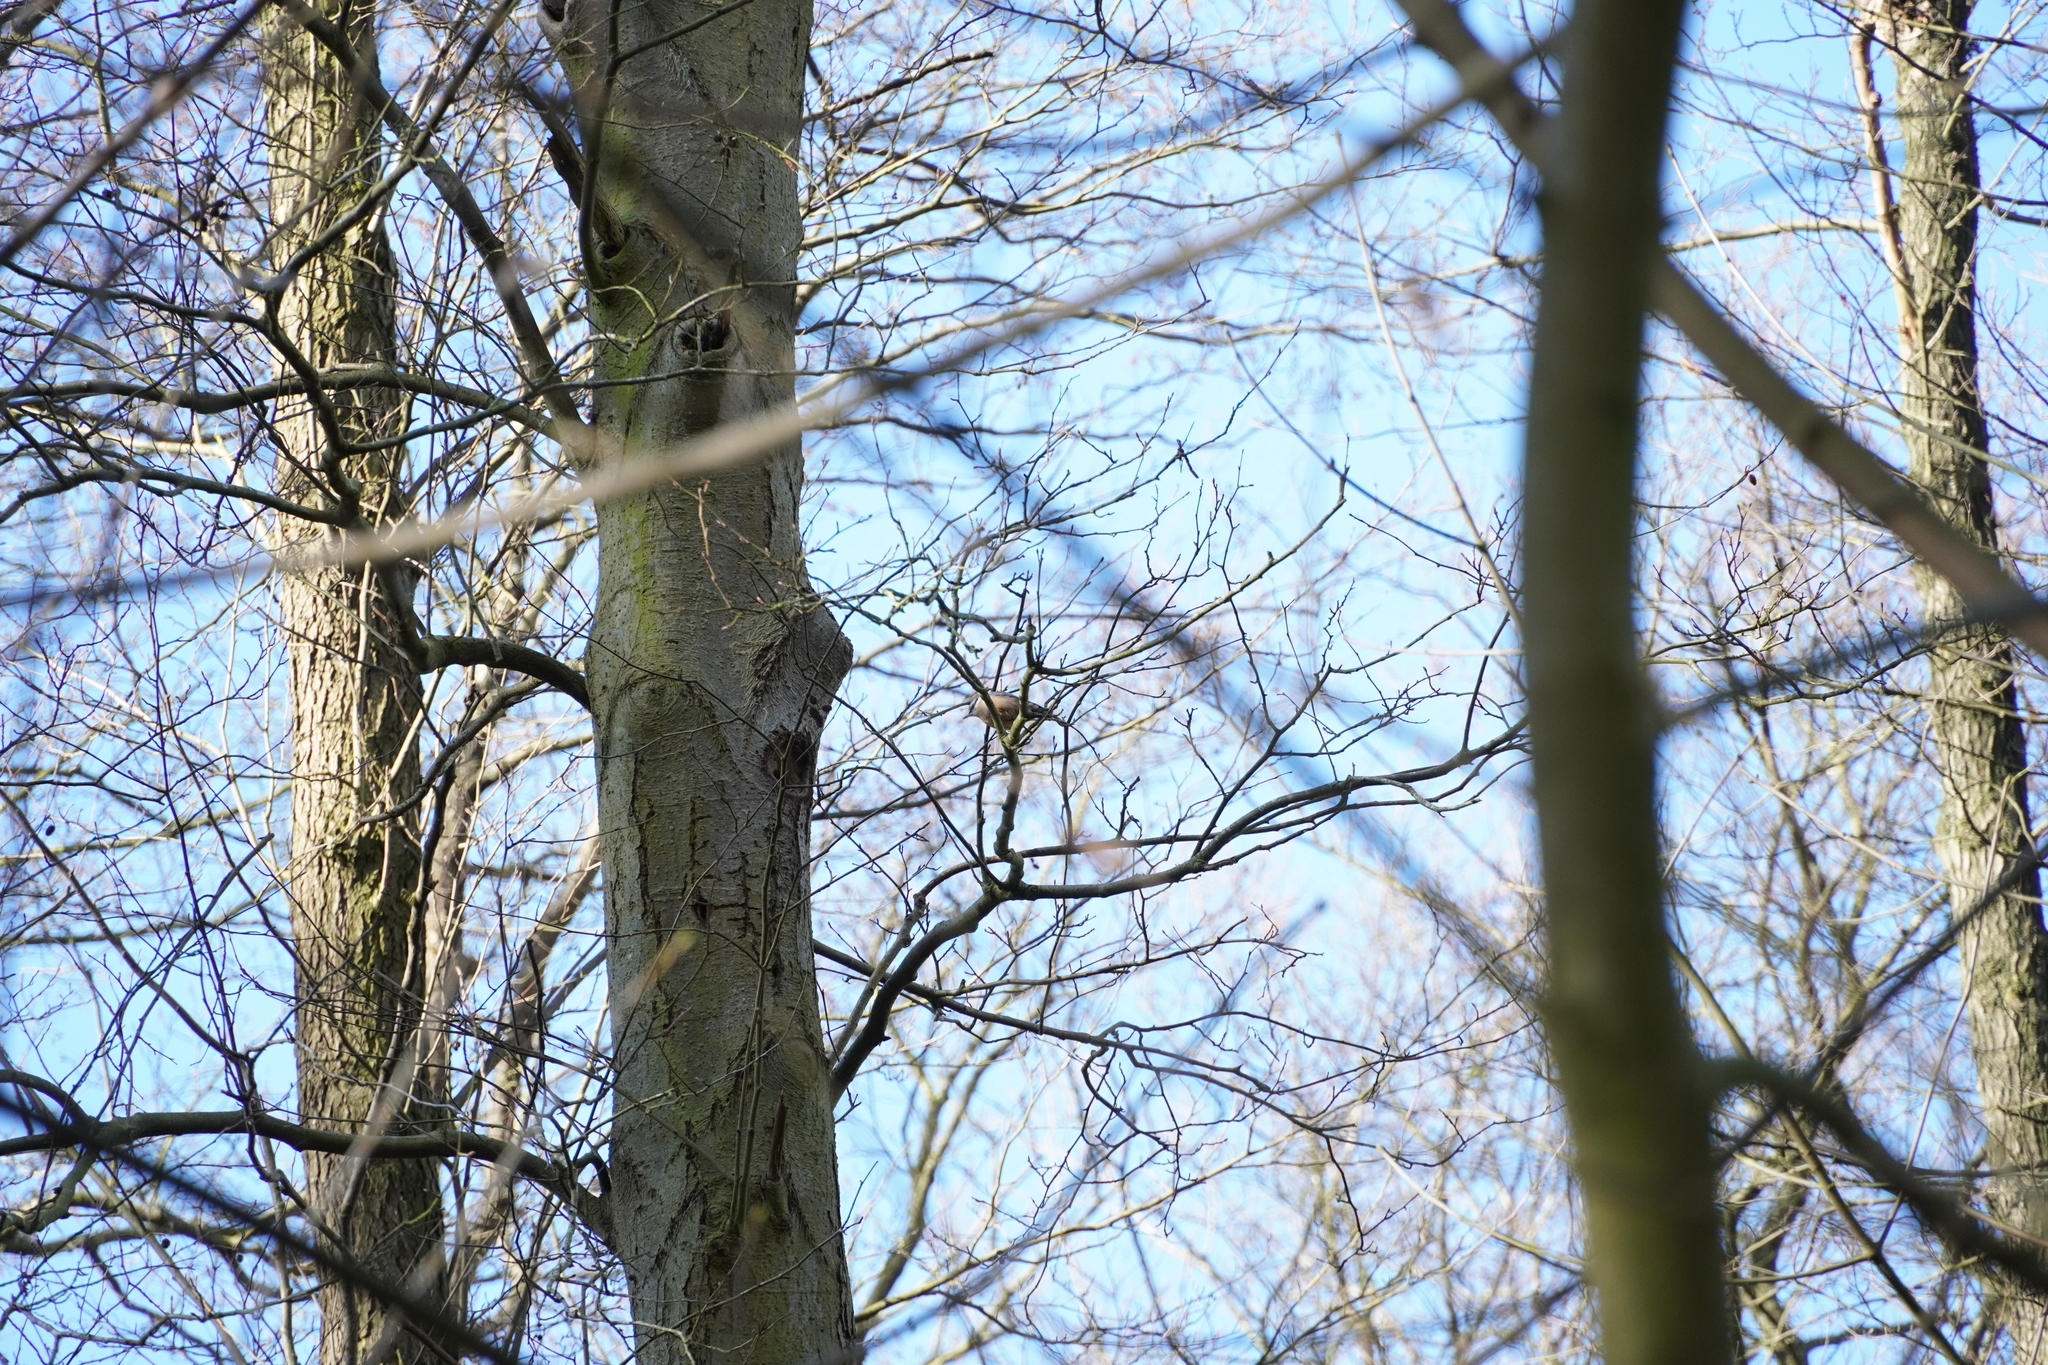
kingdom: Animalia
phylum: Chordata
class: Aves
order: Passeriformes
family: Sittidae
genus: Sitta
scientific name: Sitta europaea
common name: Eurasian nuthatch
